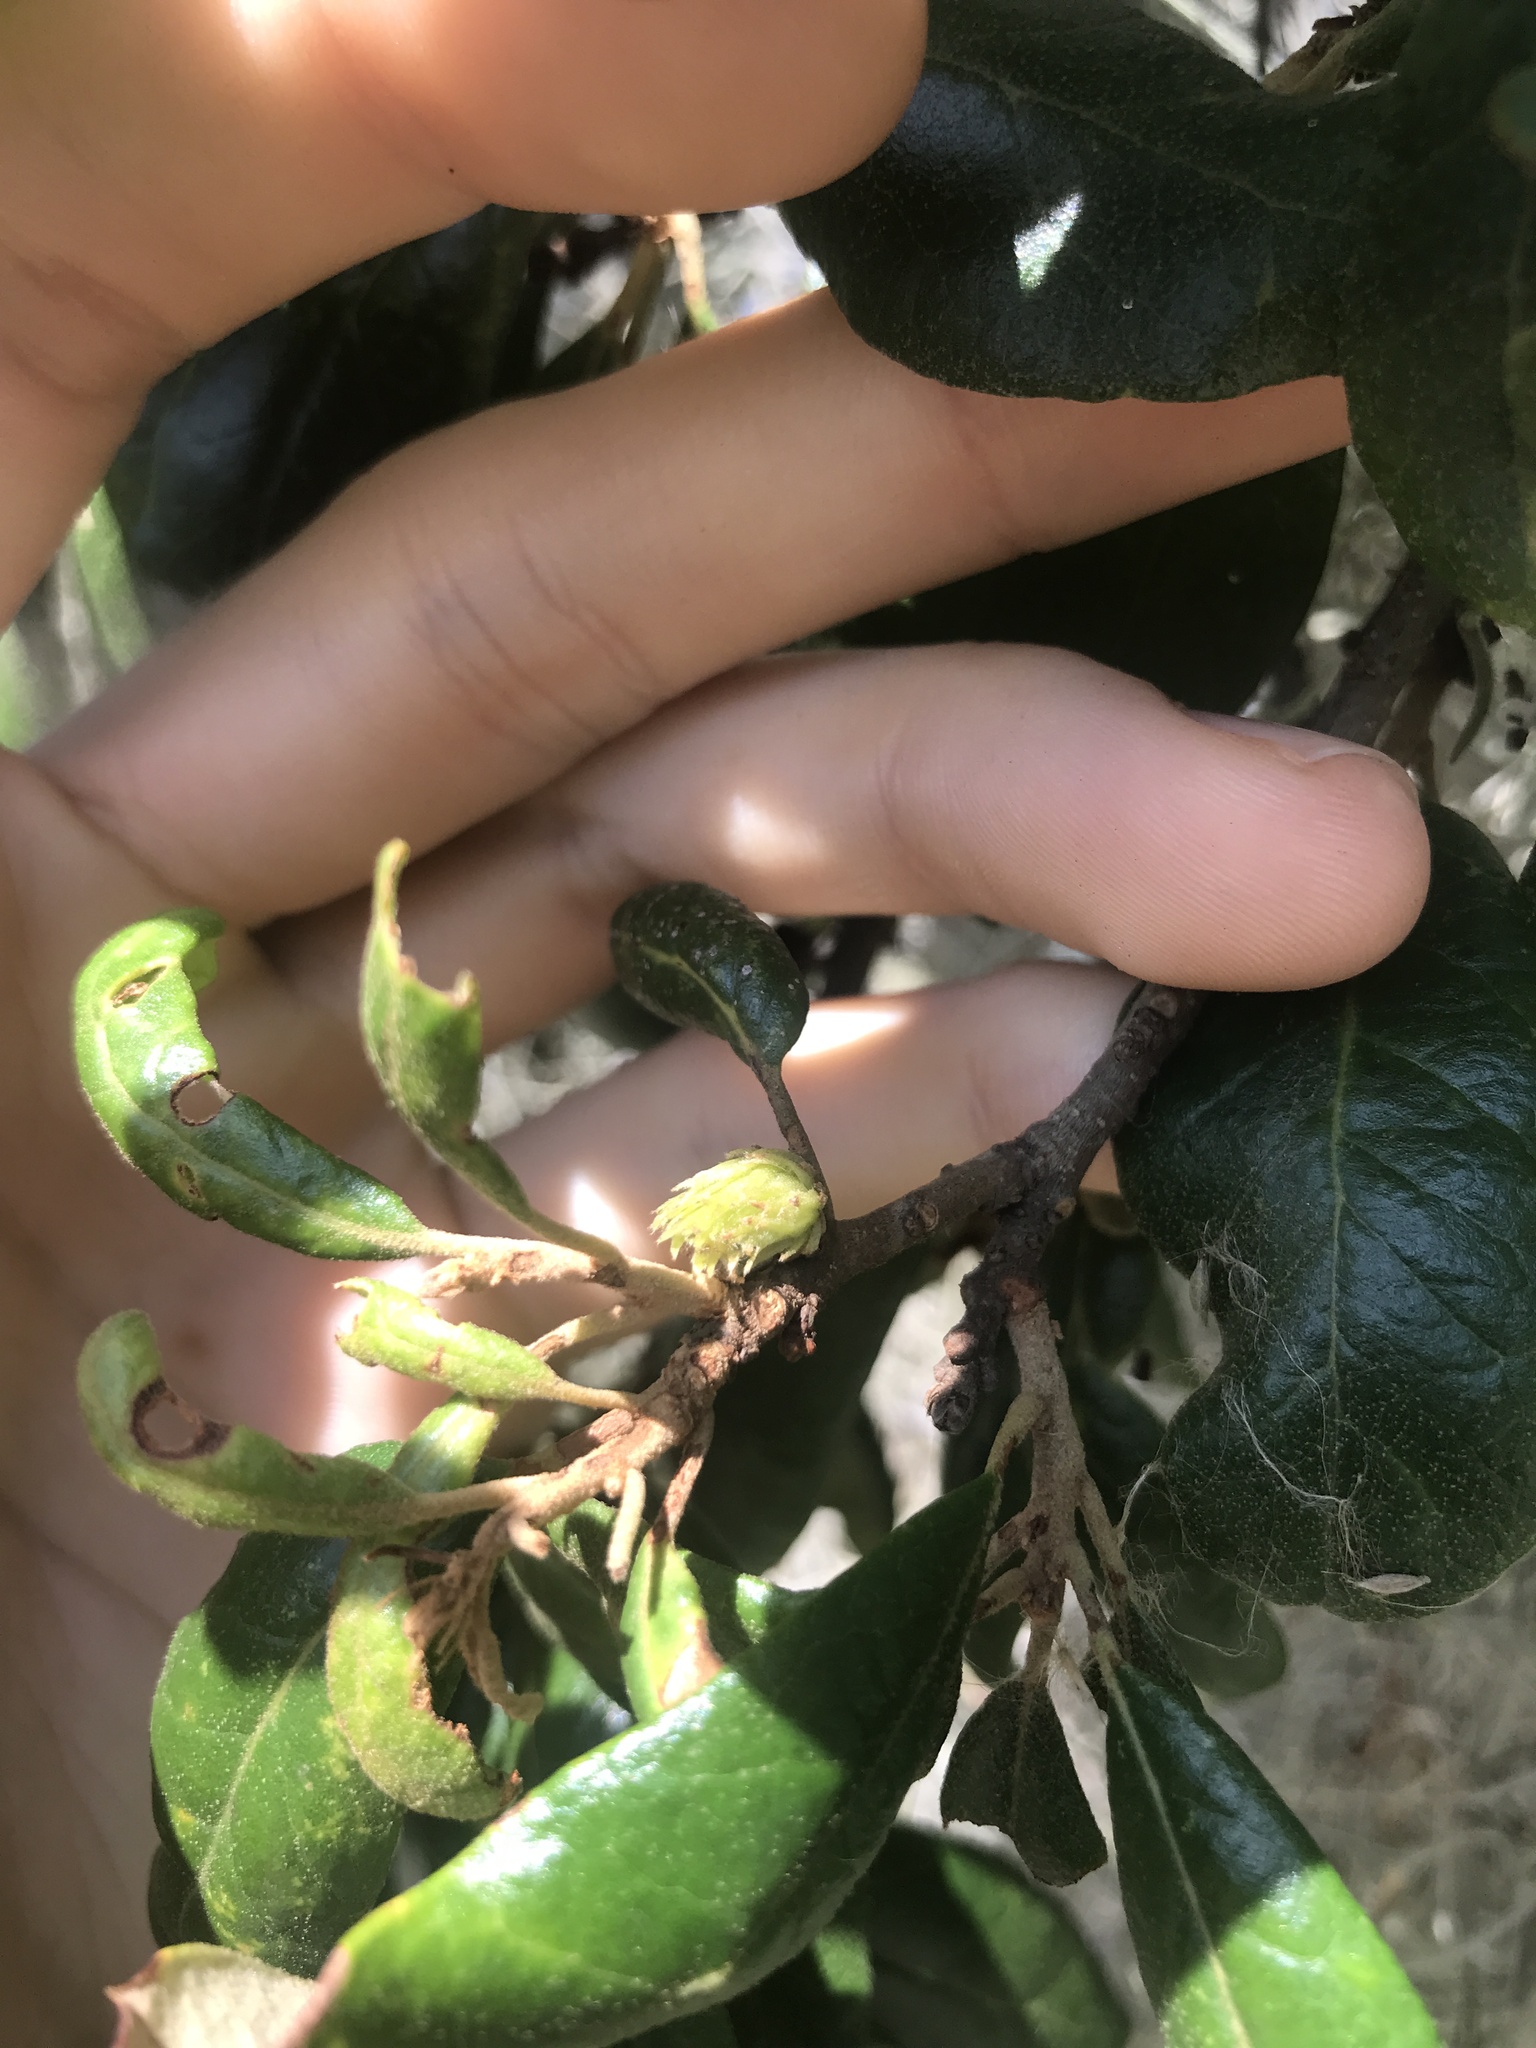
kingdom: Animalia
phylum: Arthropoda
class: Insecta
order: Hymenoptera
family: Cynipidae
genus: Andricus
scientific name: Andricus quercusfoliatus
